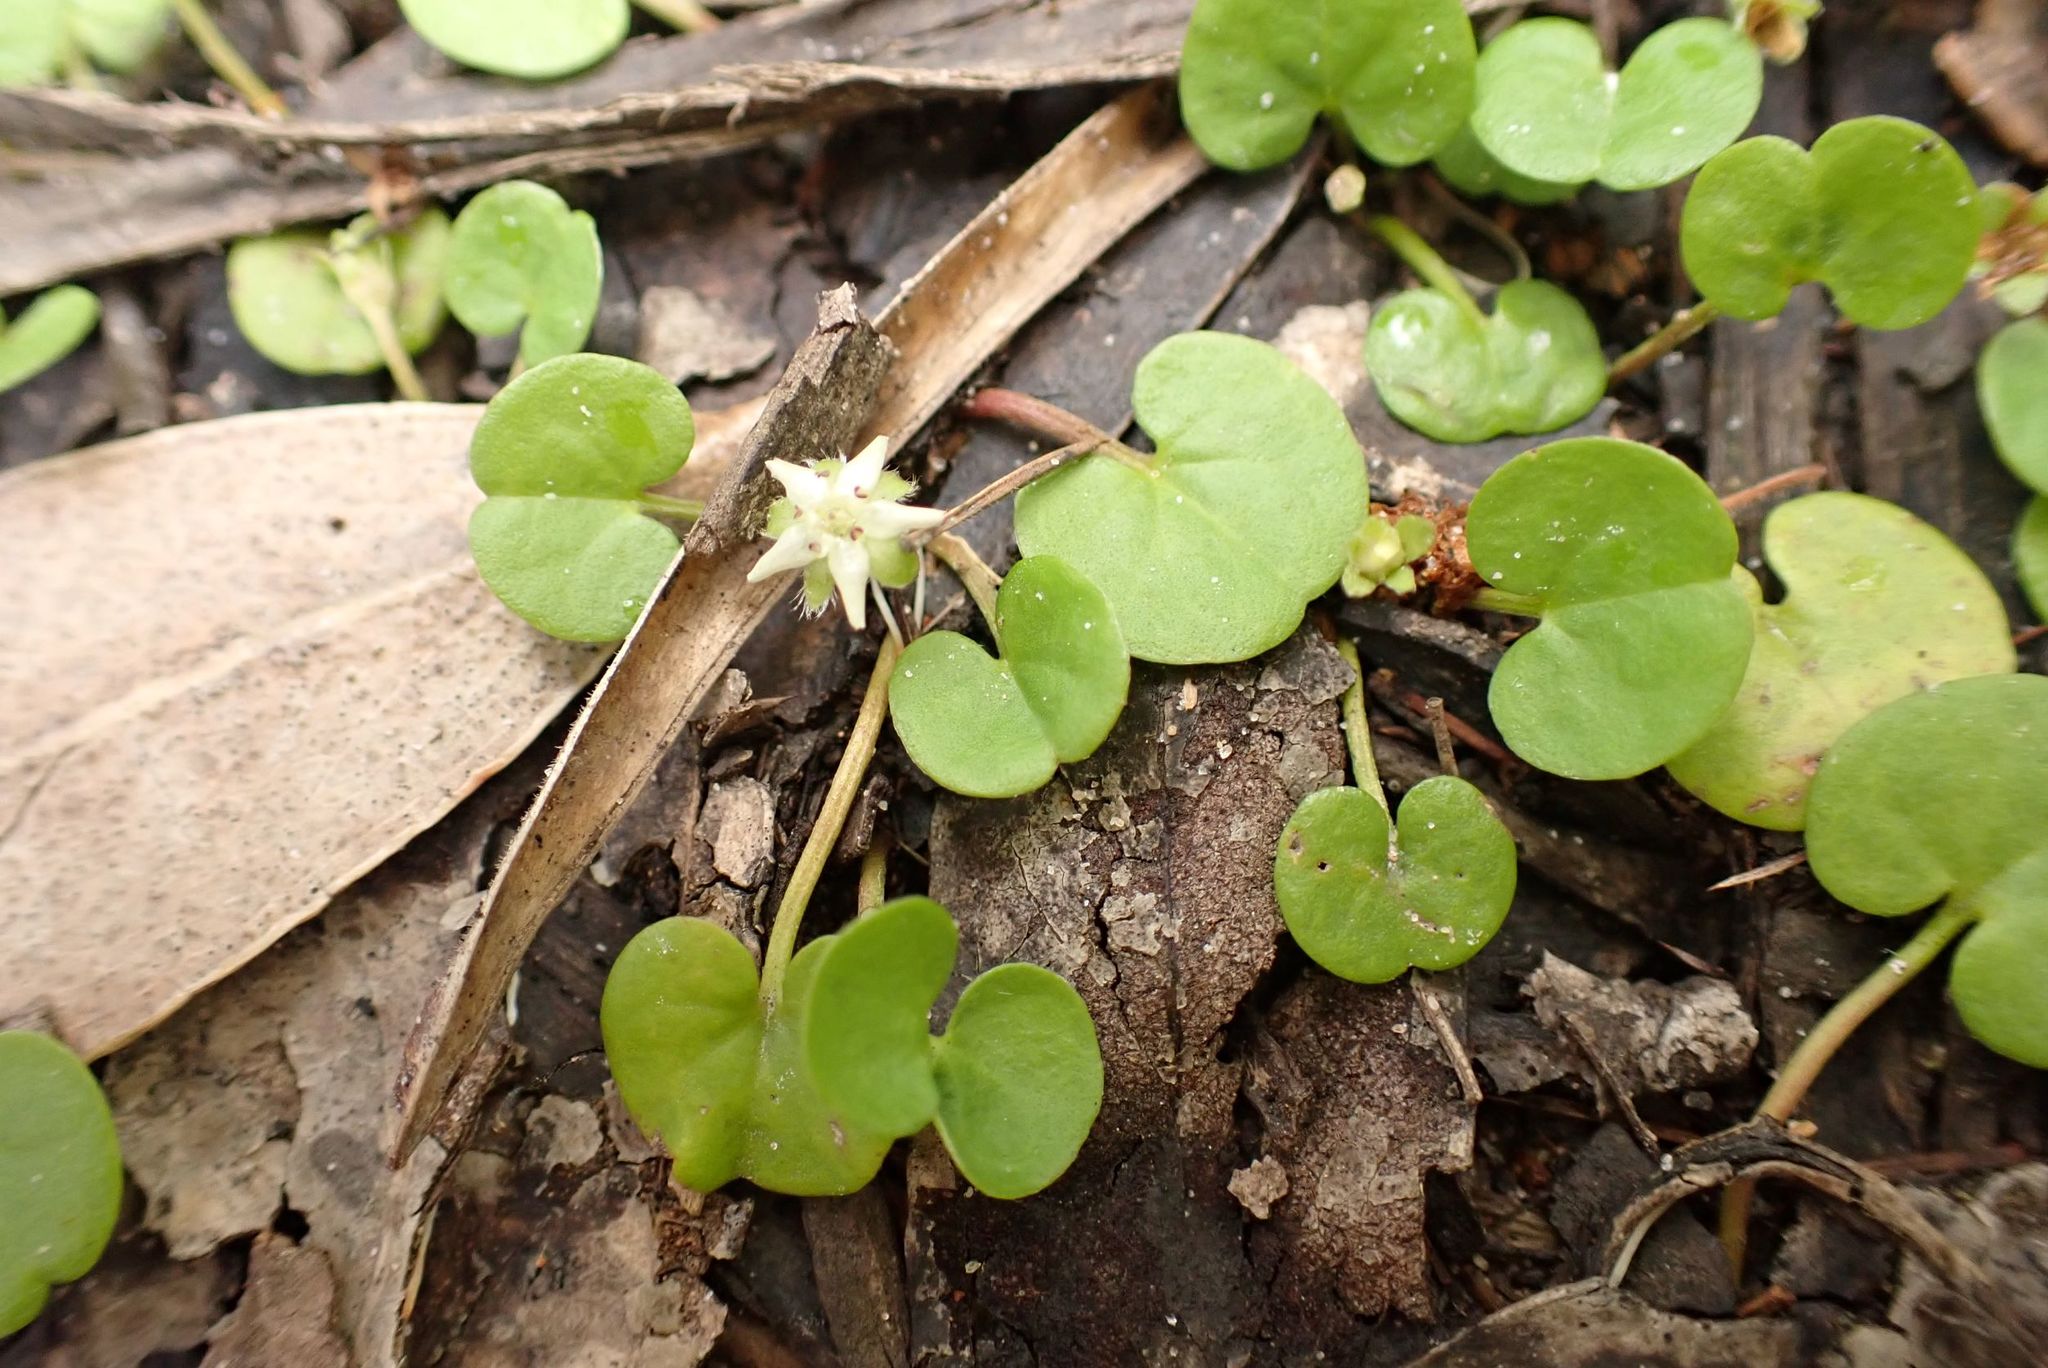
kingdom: Plantae
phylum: Tracheophyta
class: Magnoliopsida
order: Solanales
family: Convolvulaceae
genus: Dichondra
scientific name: Dichondra repens
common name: Kidneyweed
